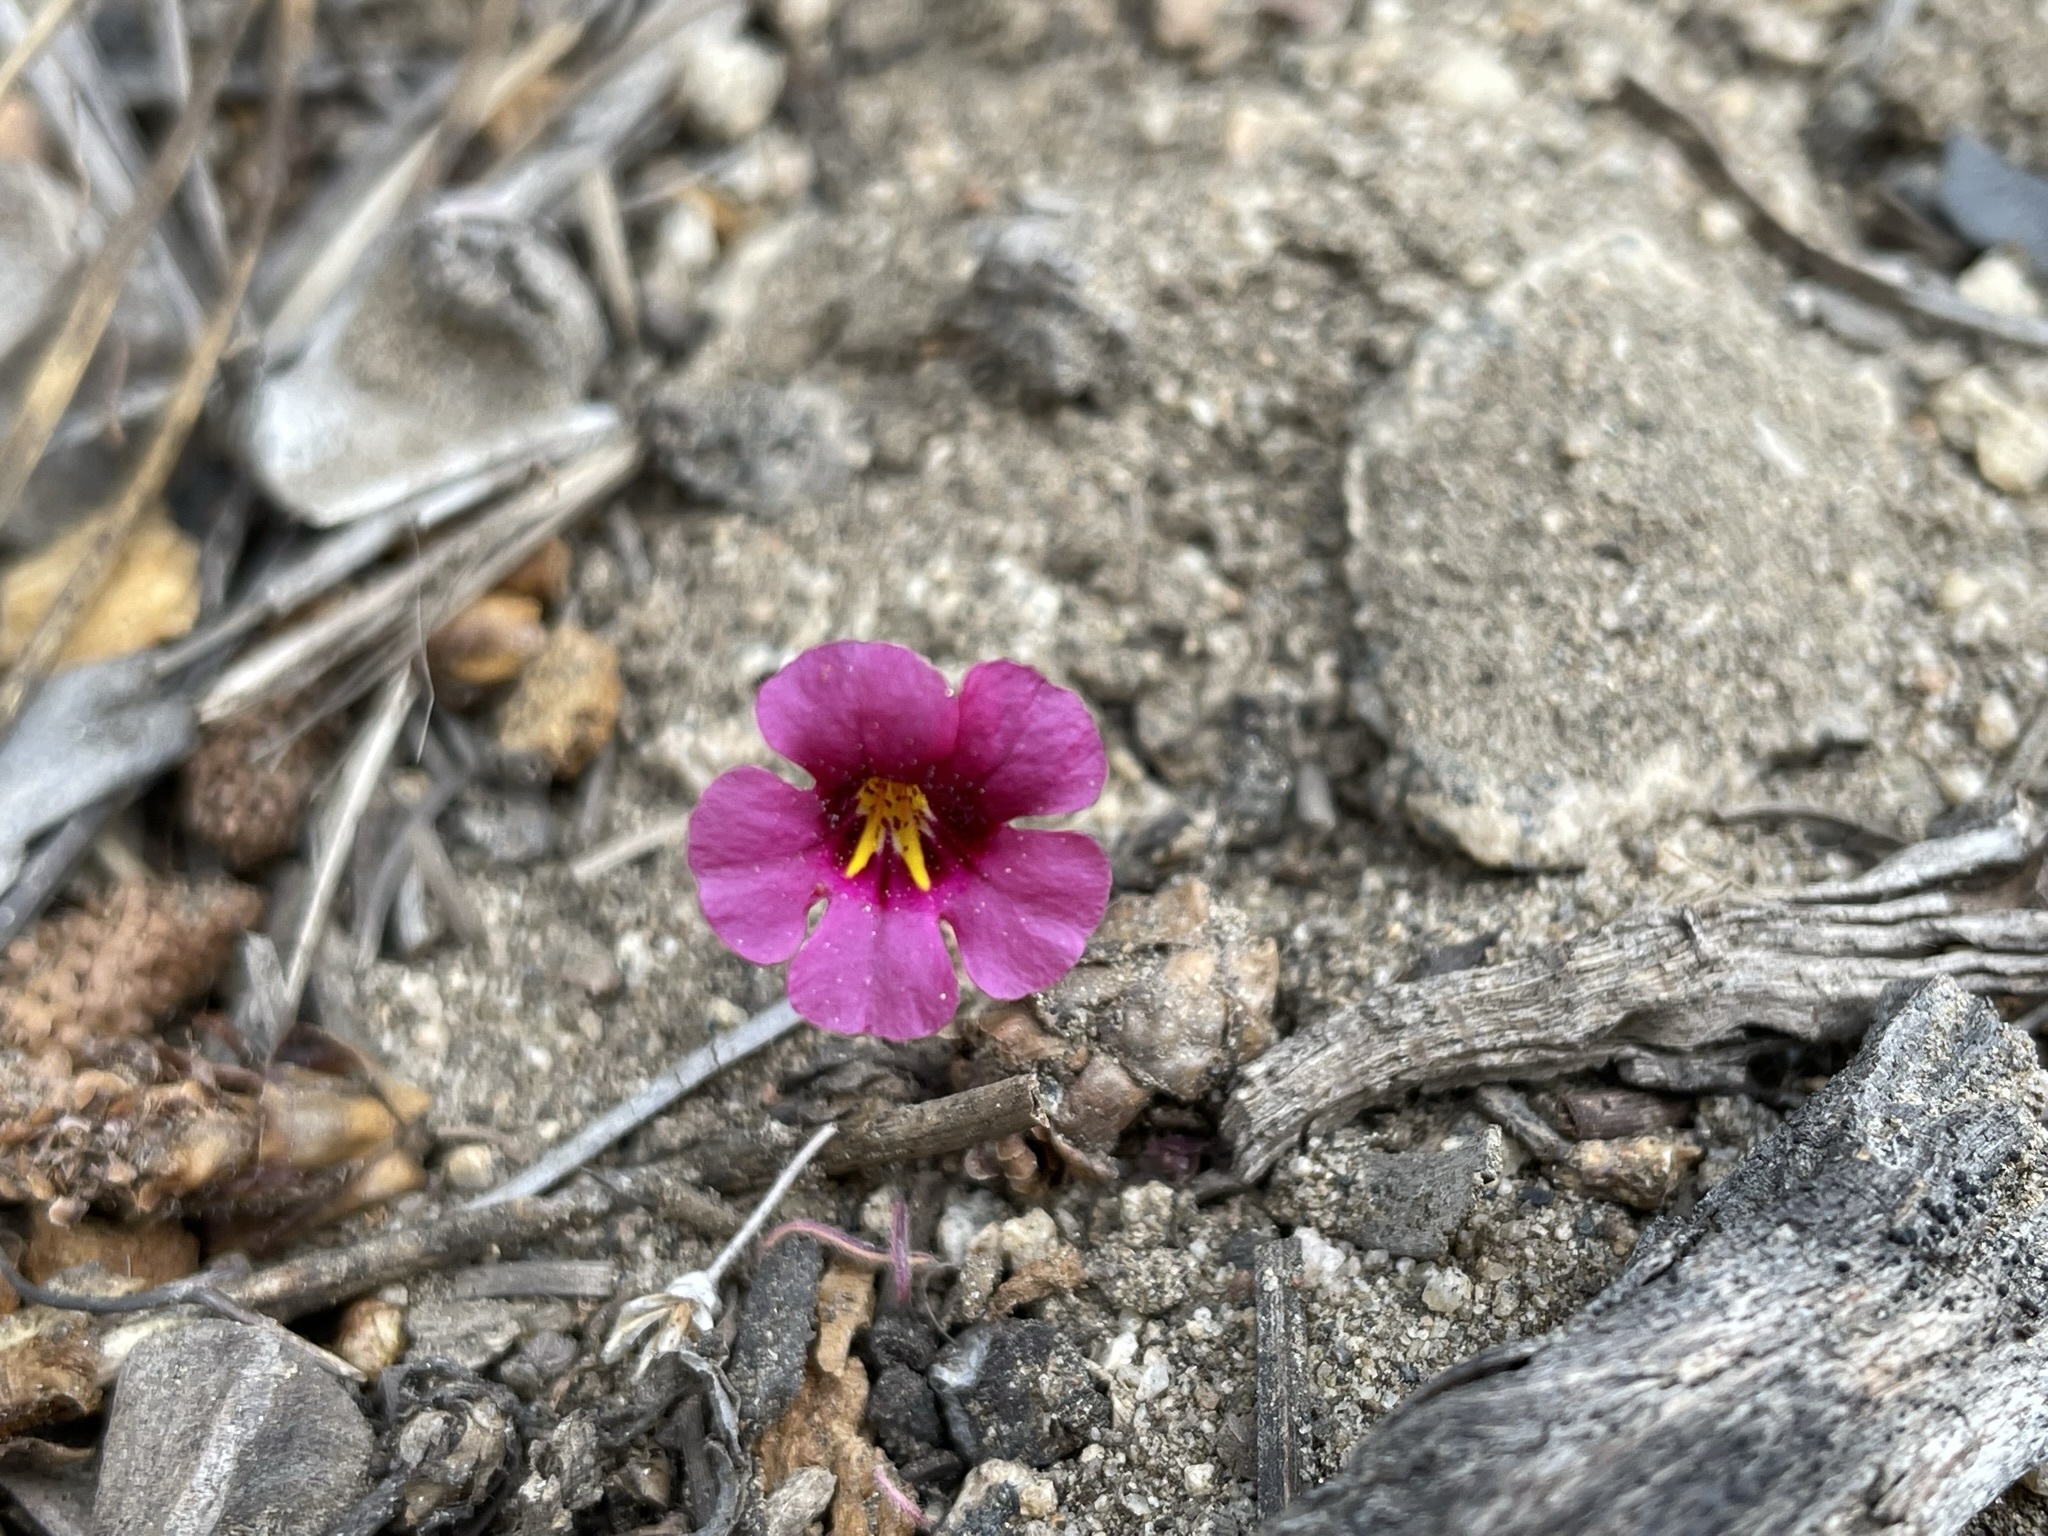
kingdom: Plantae
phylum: Tracheophyta
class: Magnoliopsida
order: Lamiales
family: Phrymaceae
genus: Diplacus
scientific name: Diplacus bicolor
